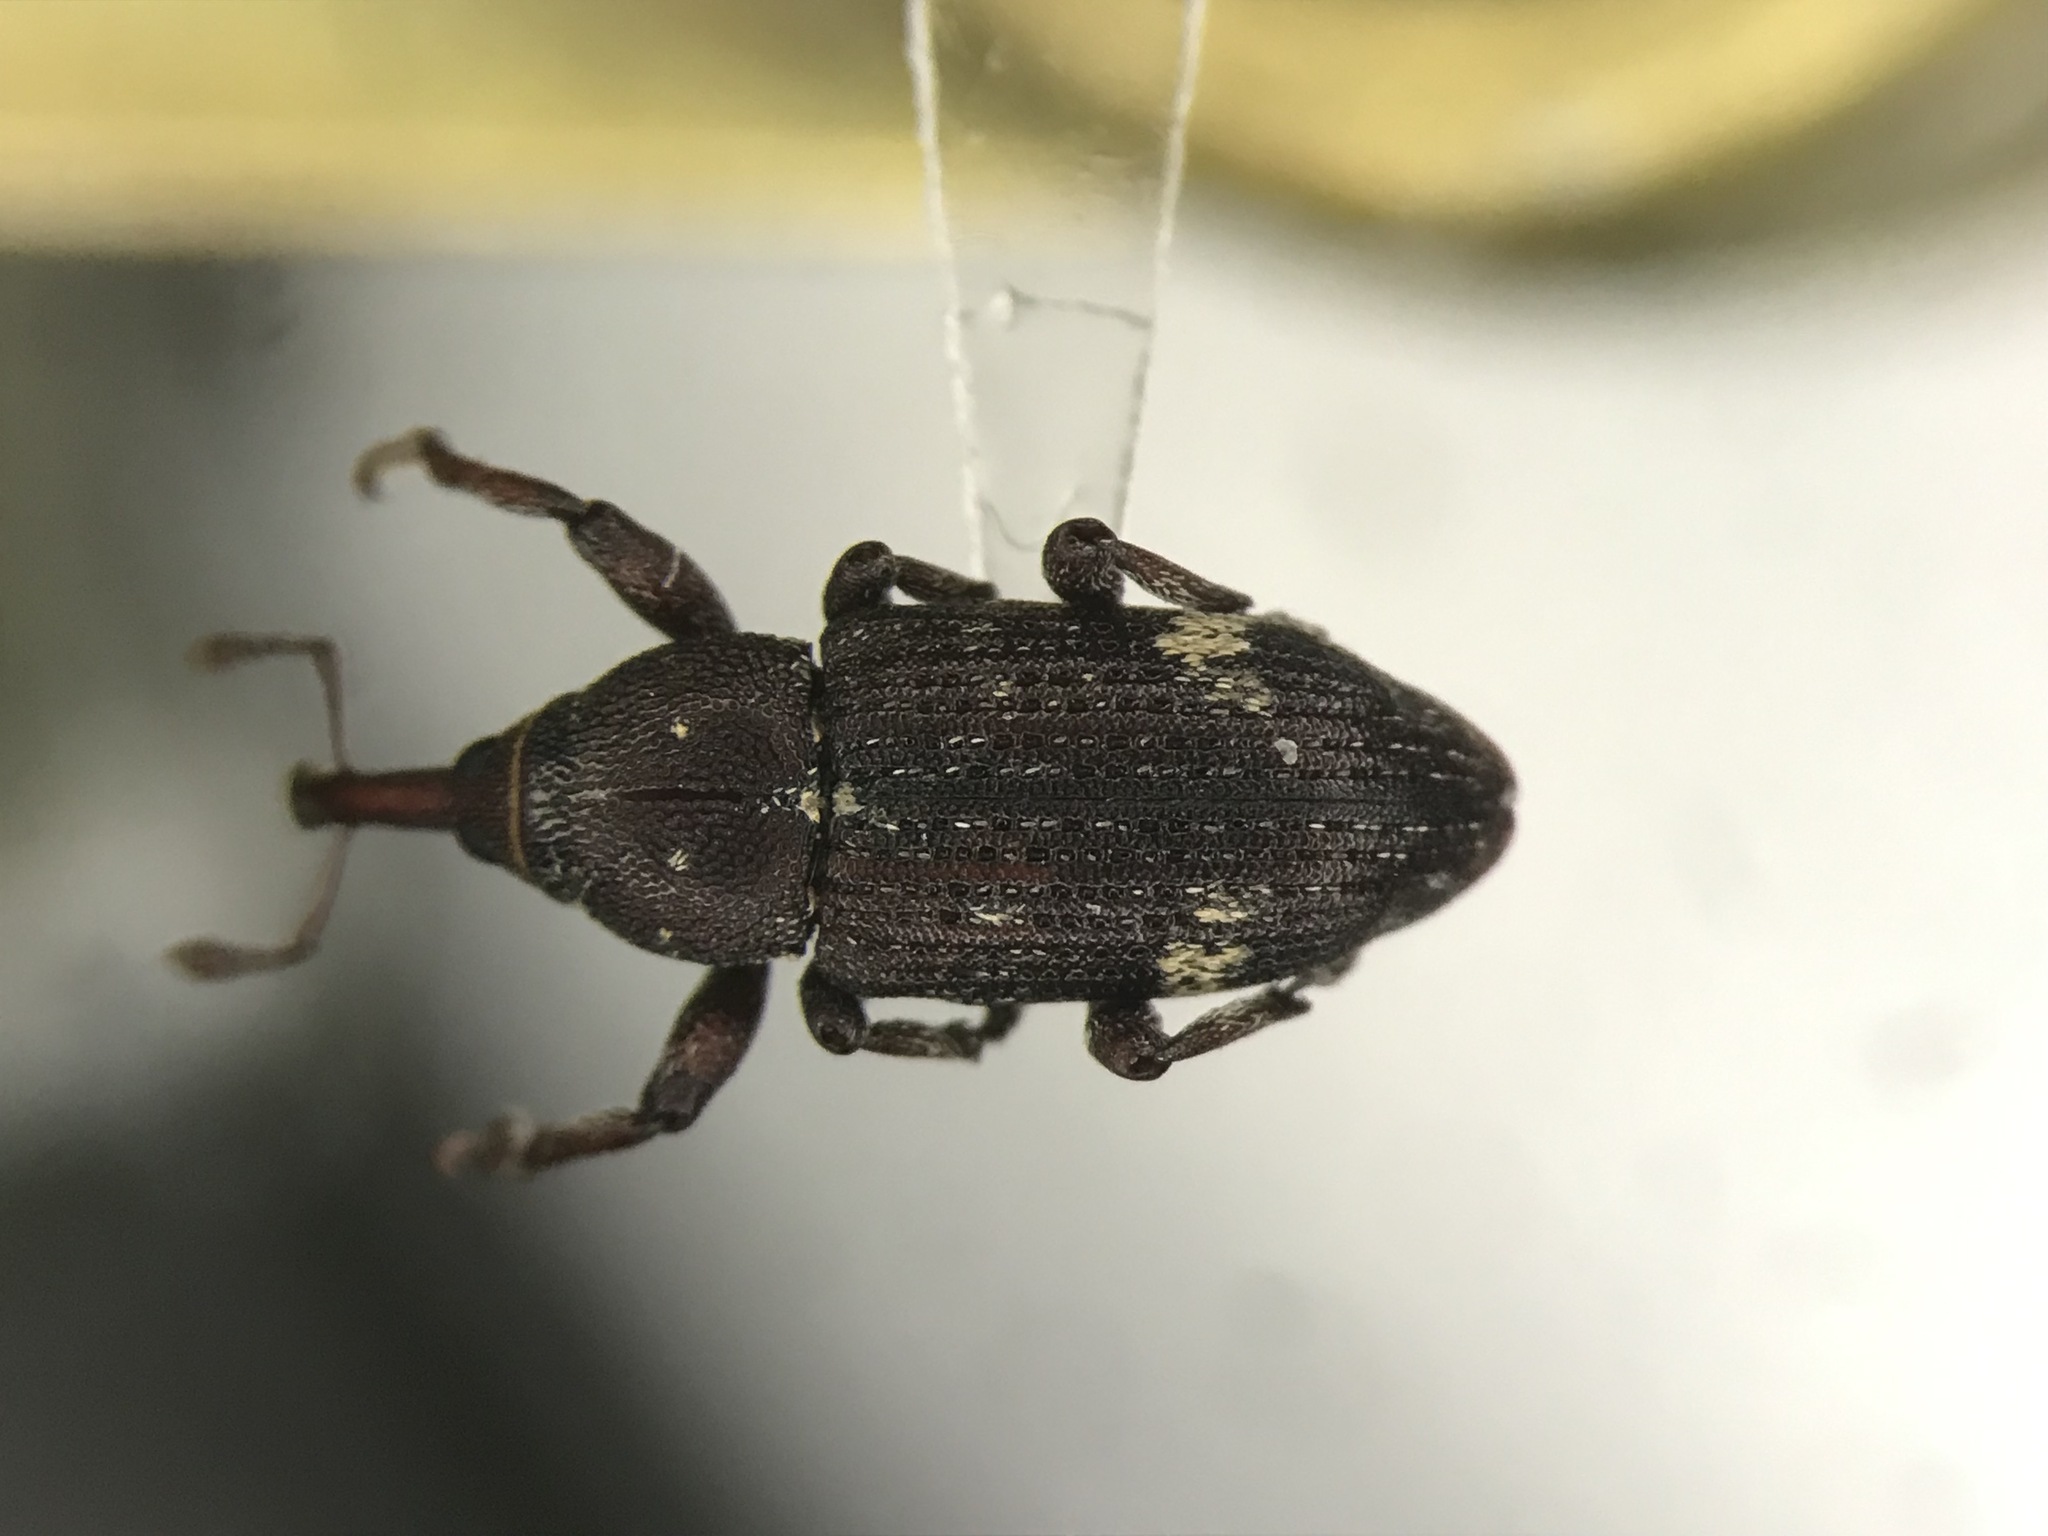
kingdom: Animalia
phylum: Arthropoda
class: Insecta
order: Coleoptera
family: Curculionidae
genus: Pissodes
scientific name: Pissodes affinis
